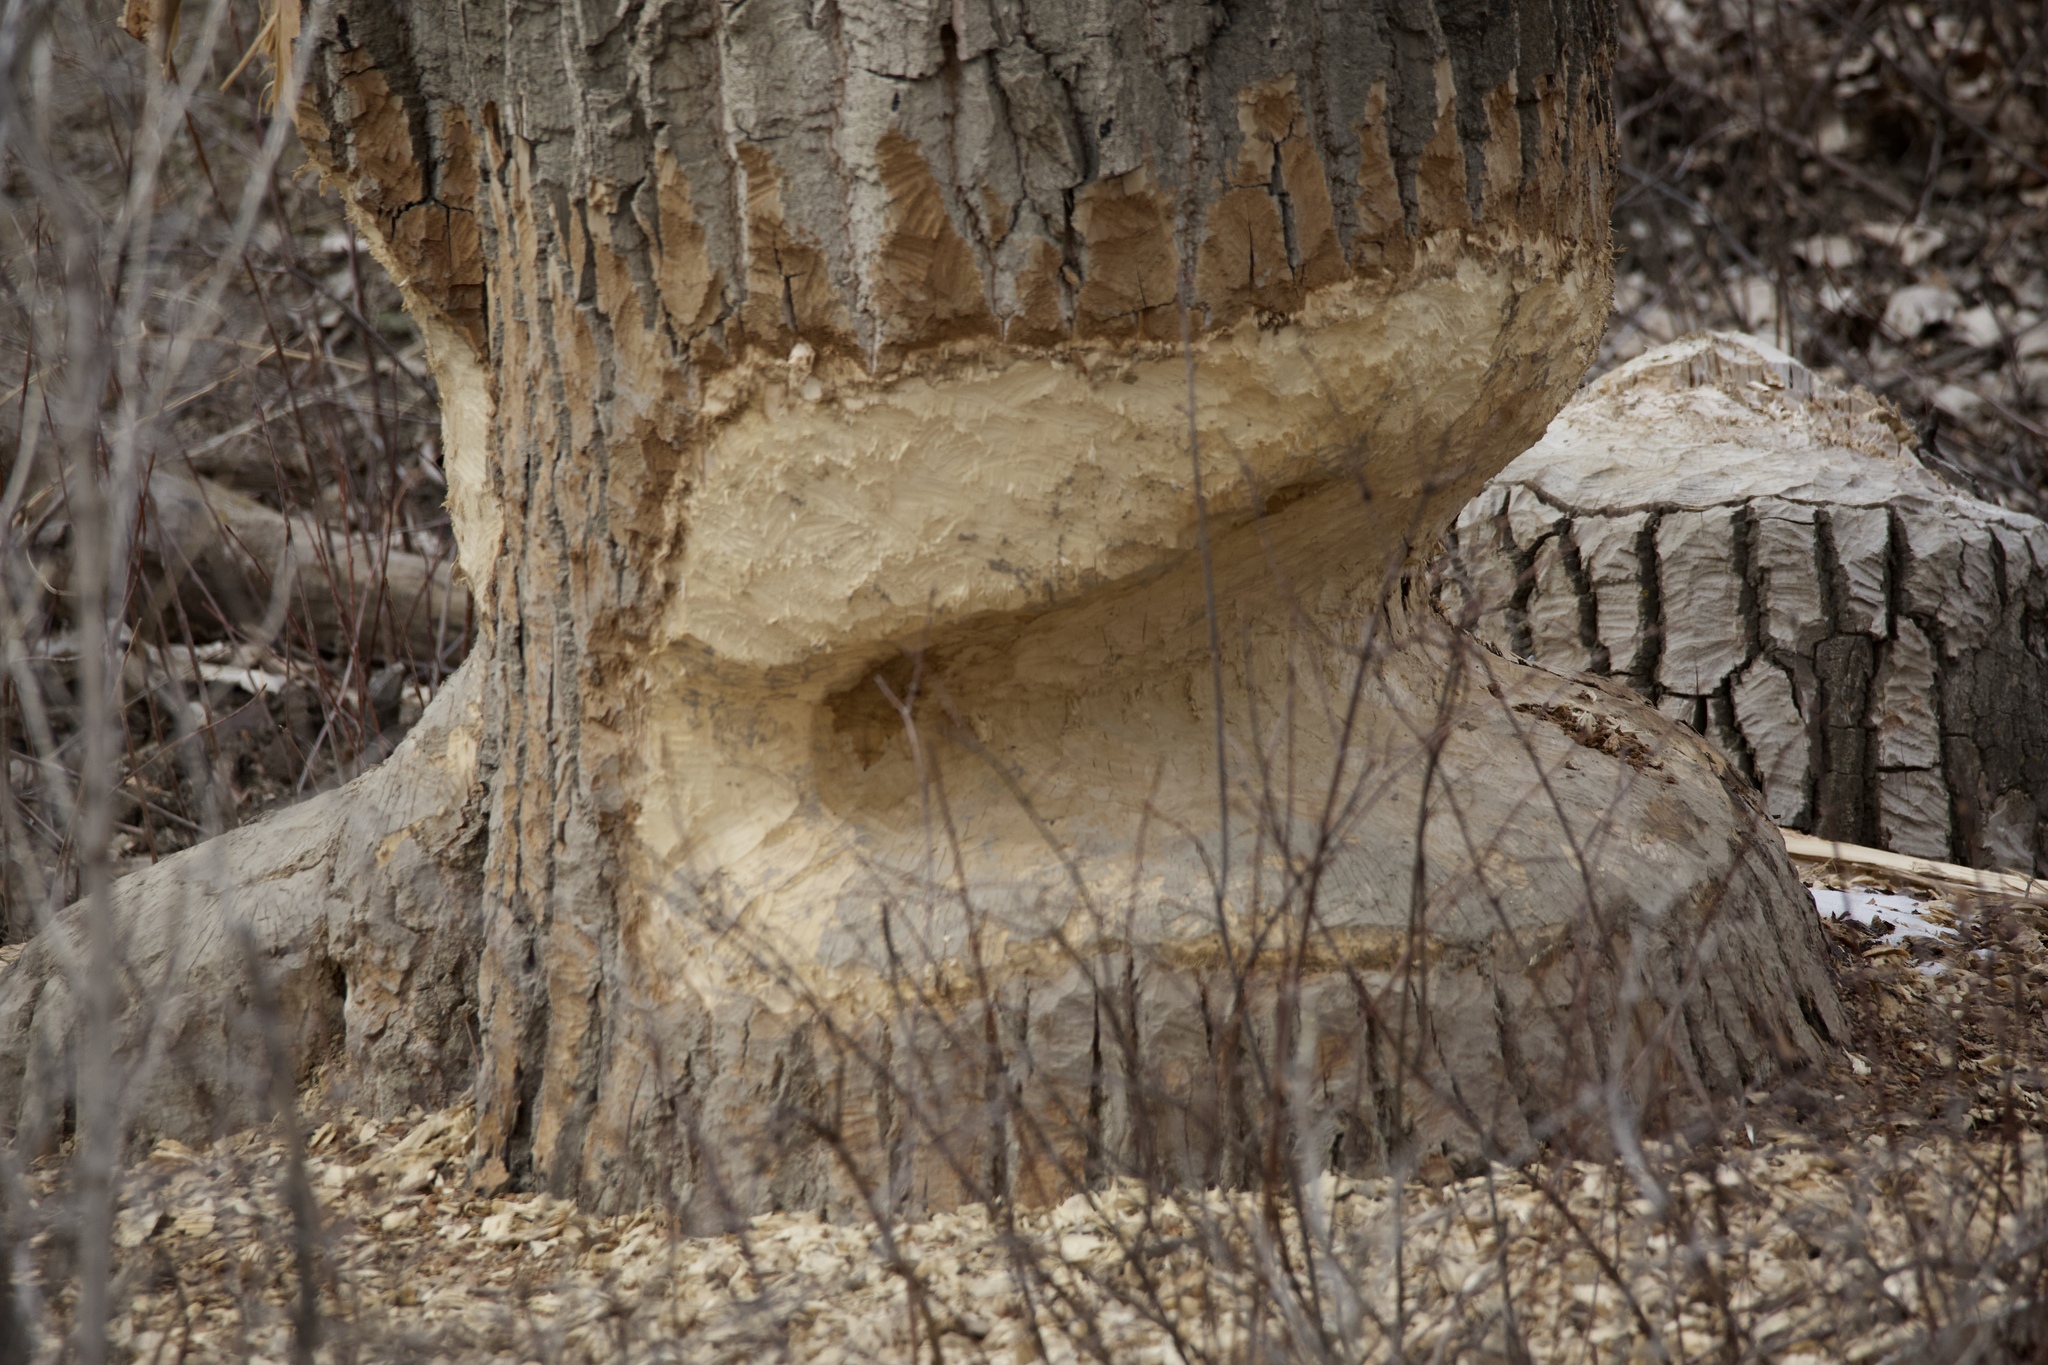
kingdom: Animalia
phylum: Chordata
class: Mammalia
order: Rodentia
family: Castoridae
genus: Castor
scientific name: Castor canadensis
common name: American beaver
